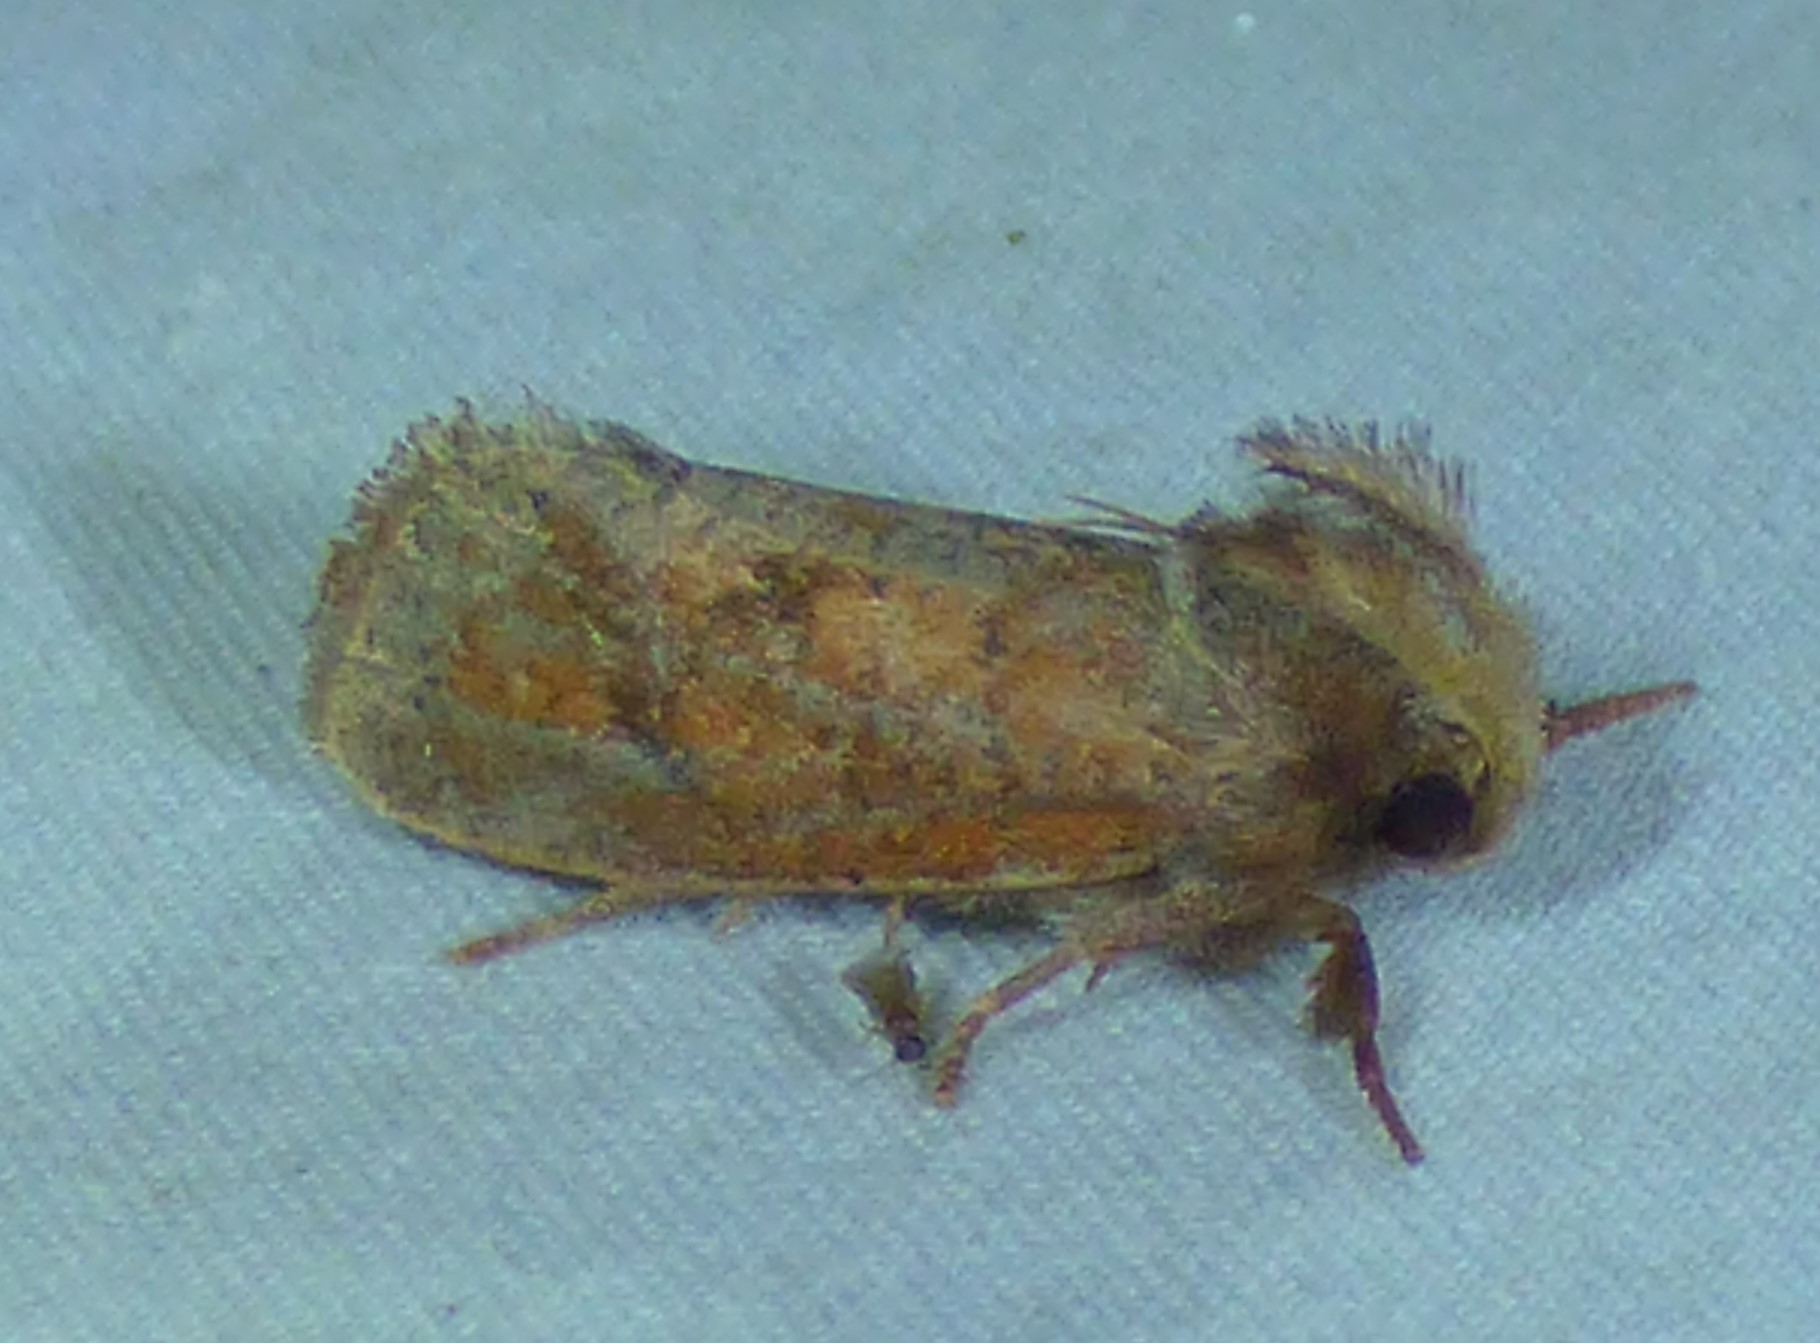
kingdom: Animalia
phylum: Arthropoda
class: Insecta
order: Lepidoptera
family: Tineidae
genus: Acrolophus
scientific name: Acrolophus plumifrontella
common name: Eastern grass tubeworm moth
